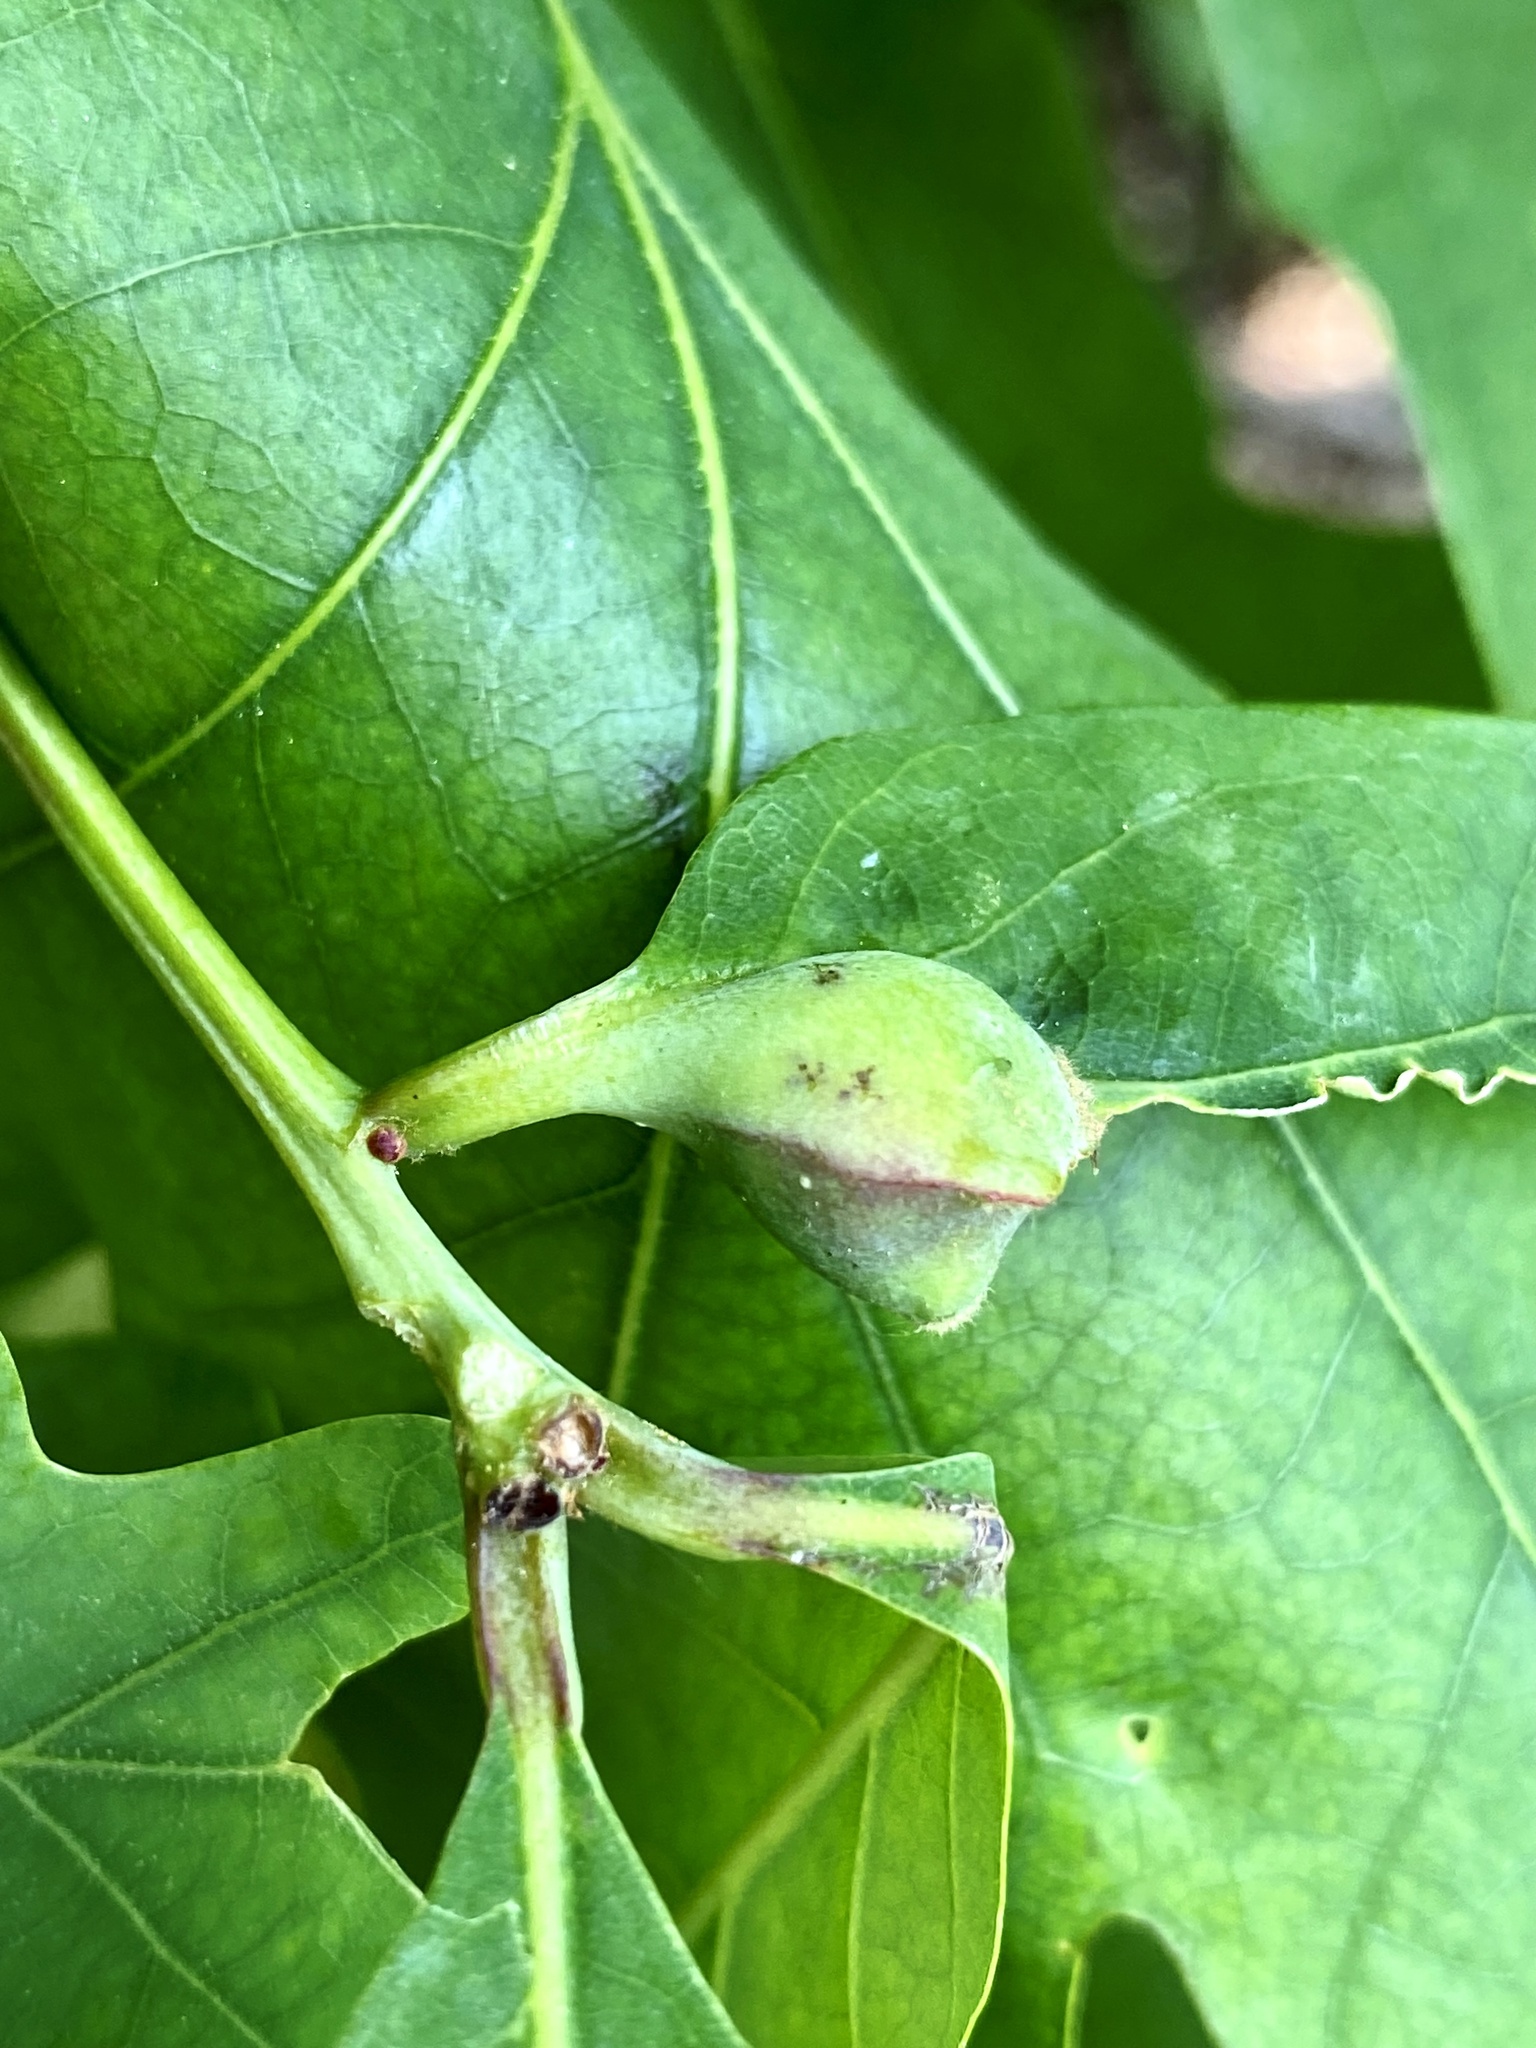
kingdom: Animalia
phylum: Arthropoda
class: Insecta
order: Hymenoptera
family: Cynipidae
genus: Callirhytis
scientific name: Callirhytis clavula
